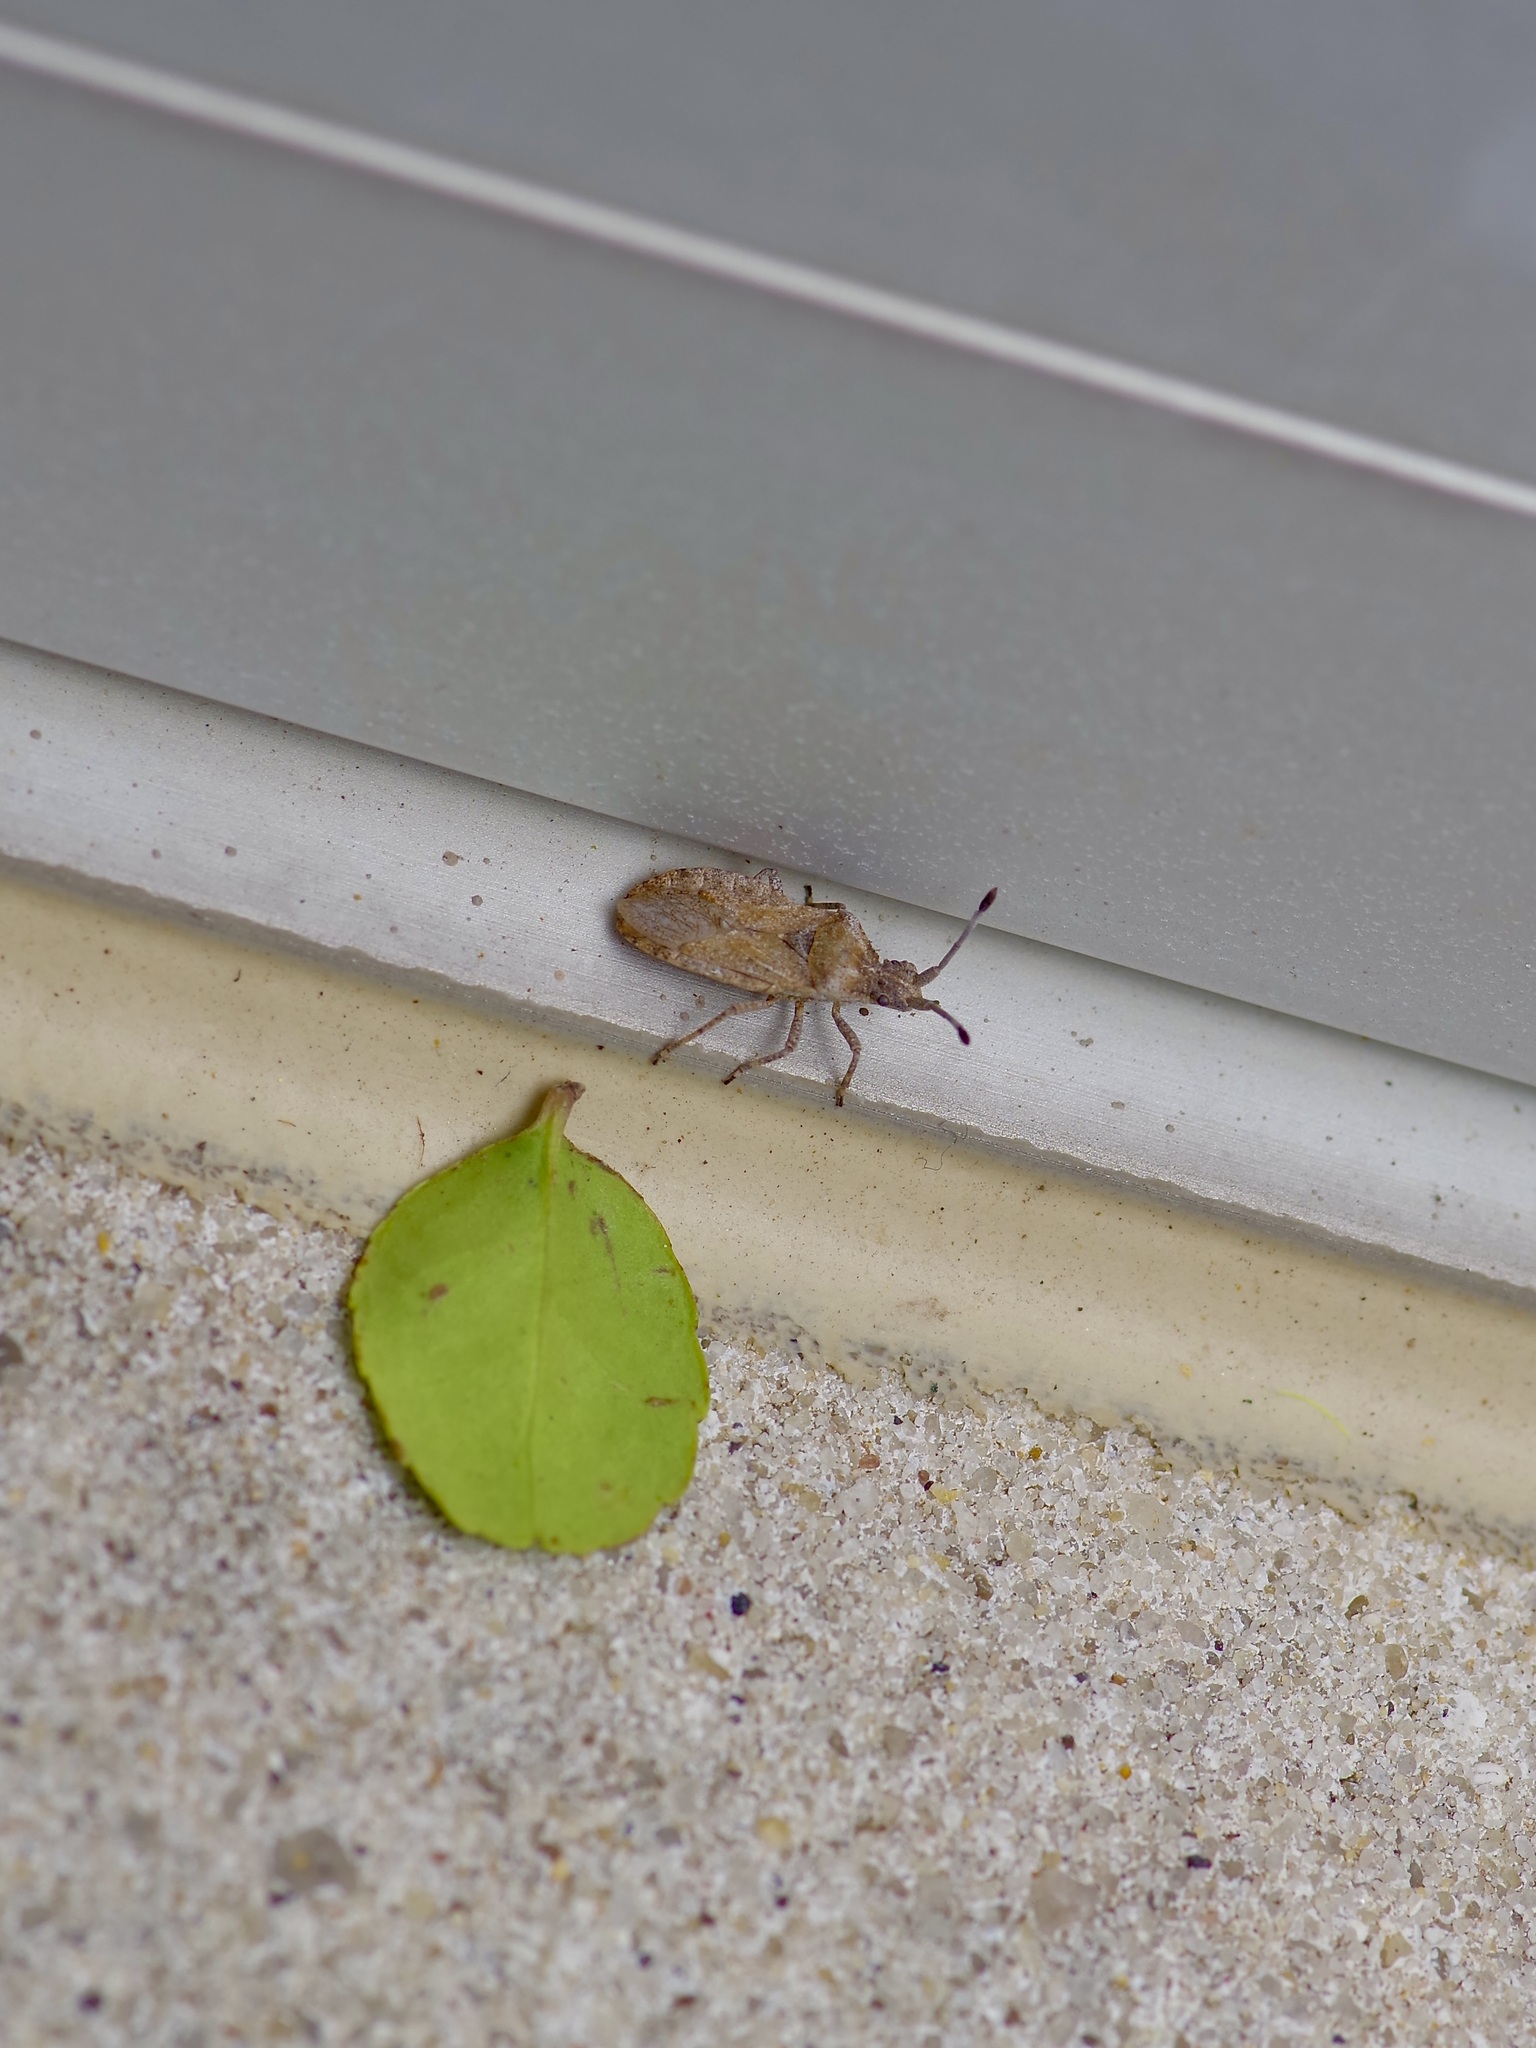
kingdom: Animalia
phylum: Arthropoda
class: Insecta
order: Hemiptera
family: Coreidae
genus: Scolopocerus
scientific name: Scolopocerus uhleri
